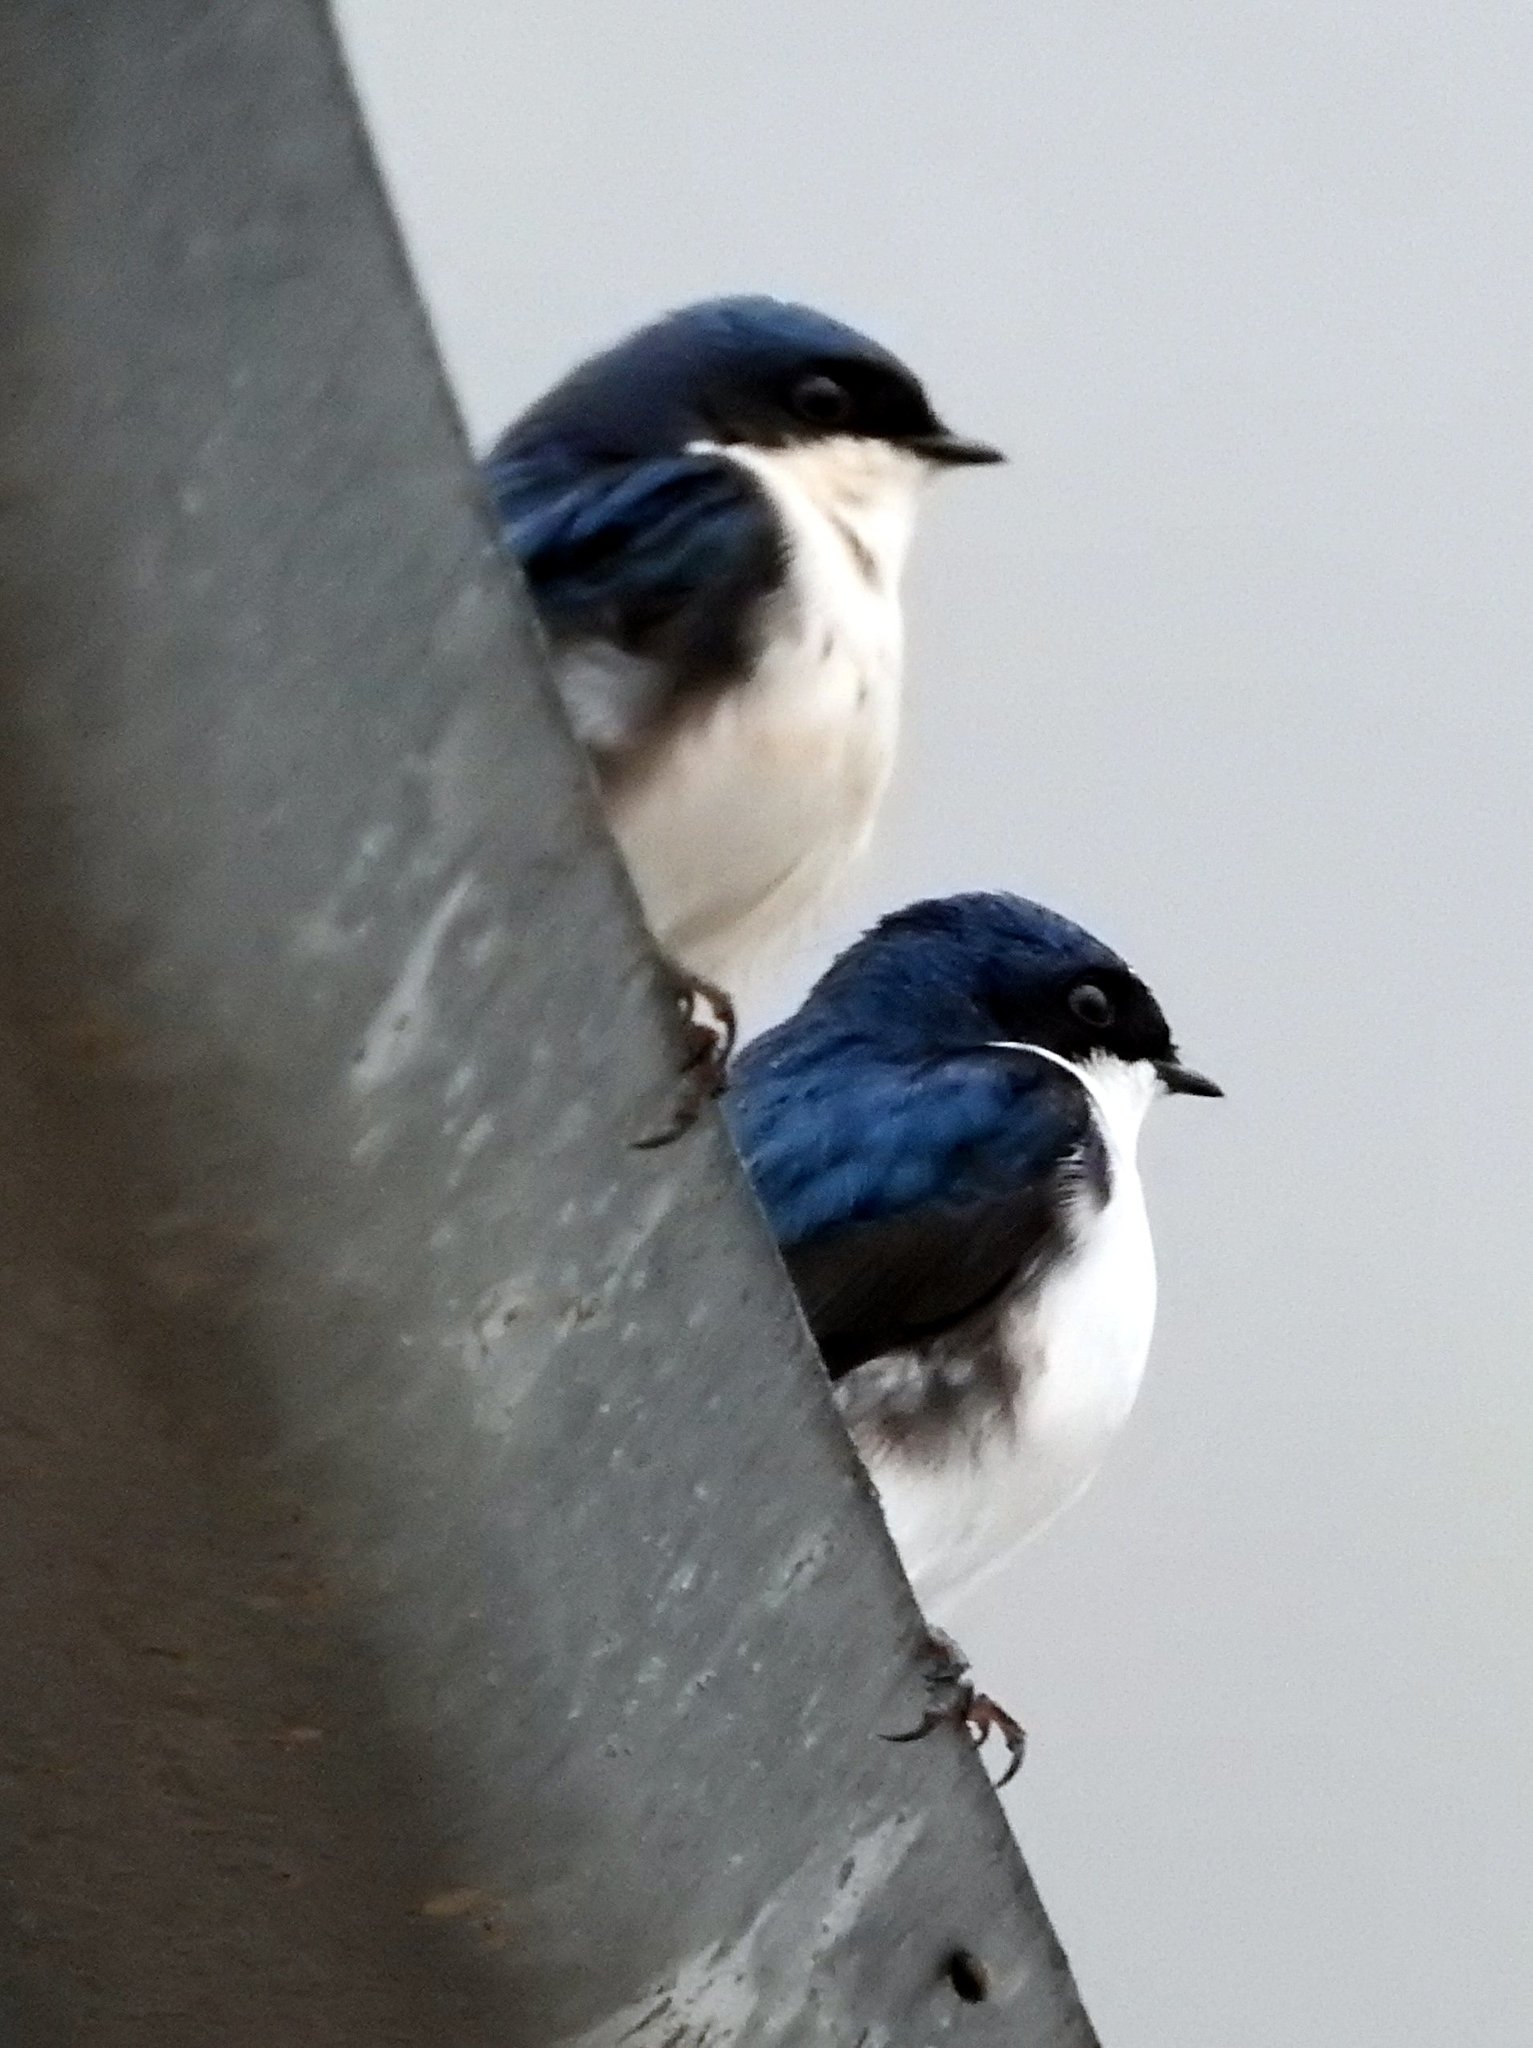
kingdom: Animalia
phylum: Chordata
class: Aves
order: Passeriformes
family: Hirundinidae
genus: Notiochelidon
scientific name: Notiochelidon cyanoleuca
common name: Blue-and-white swallow
